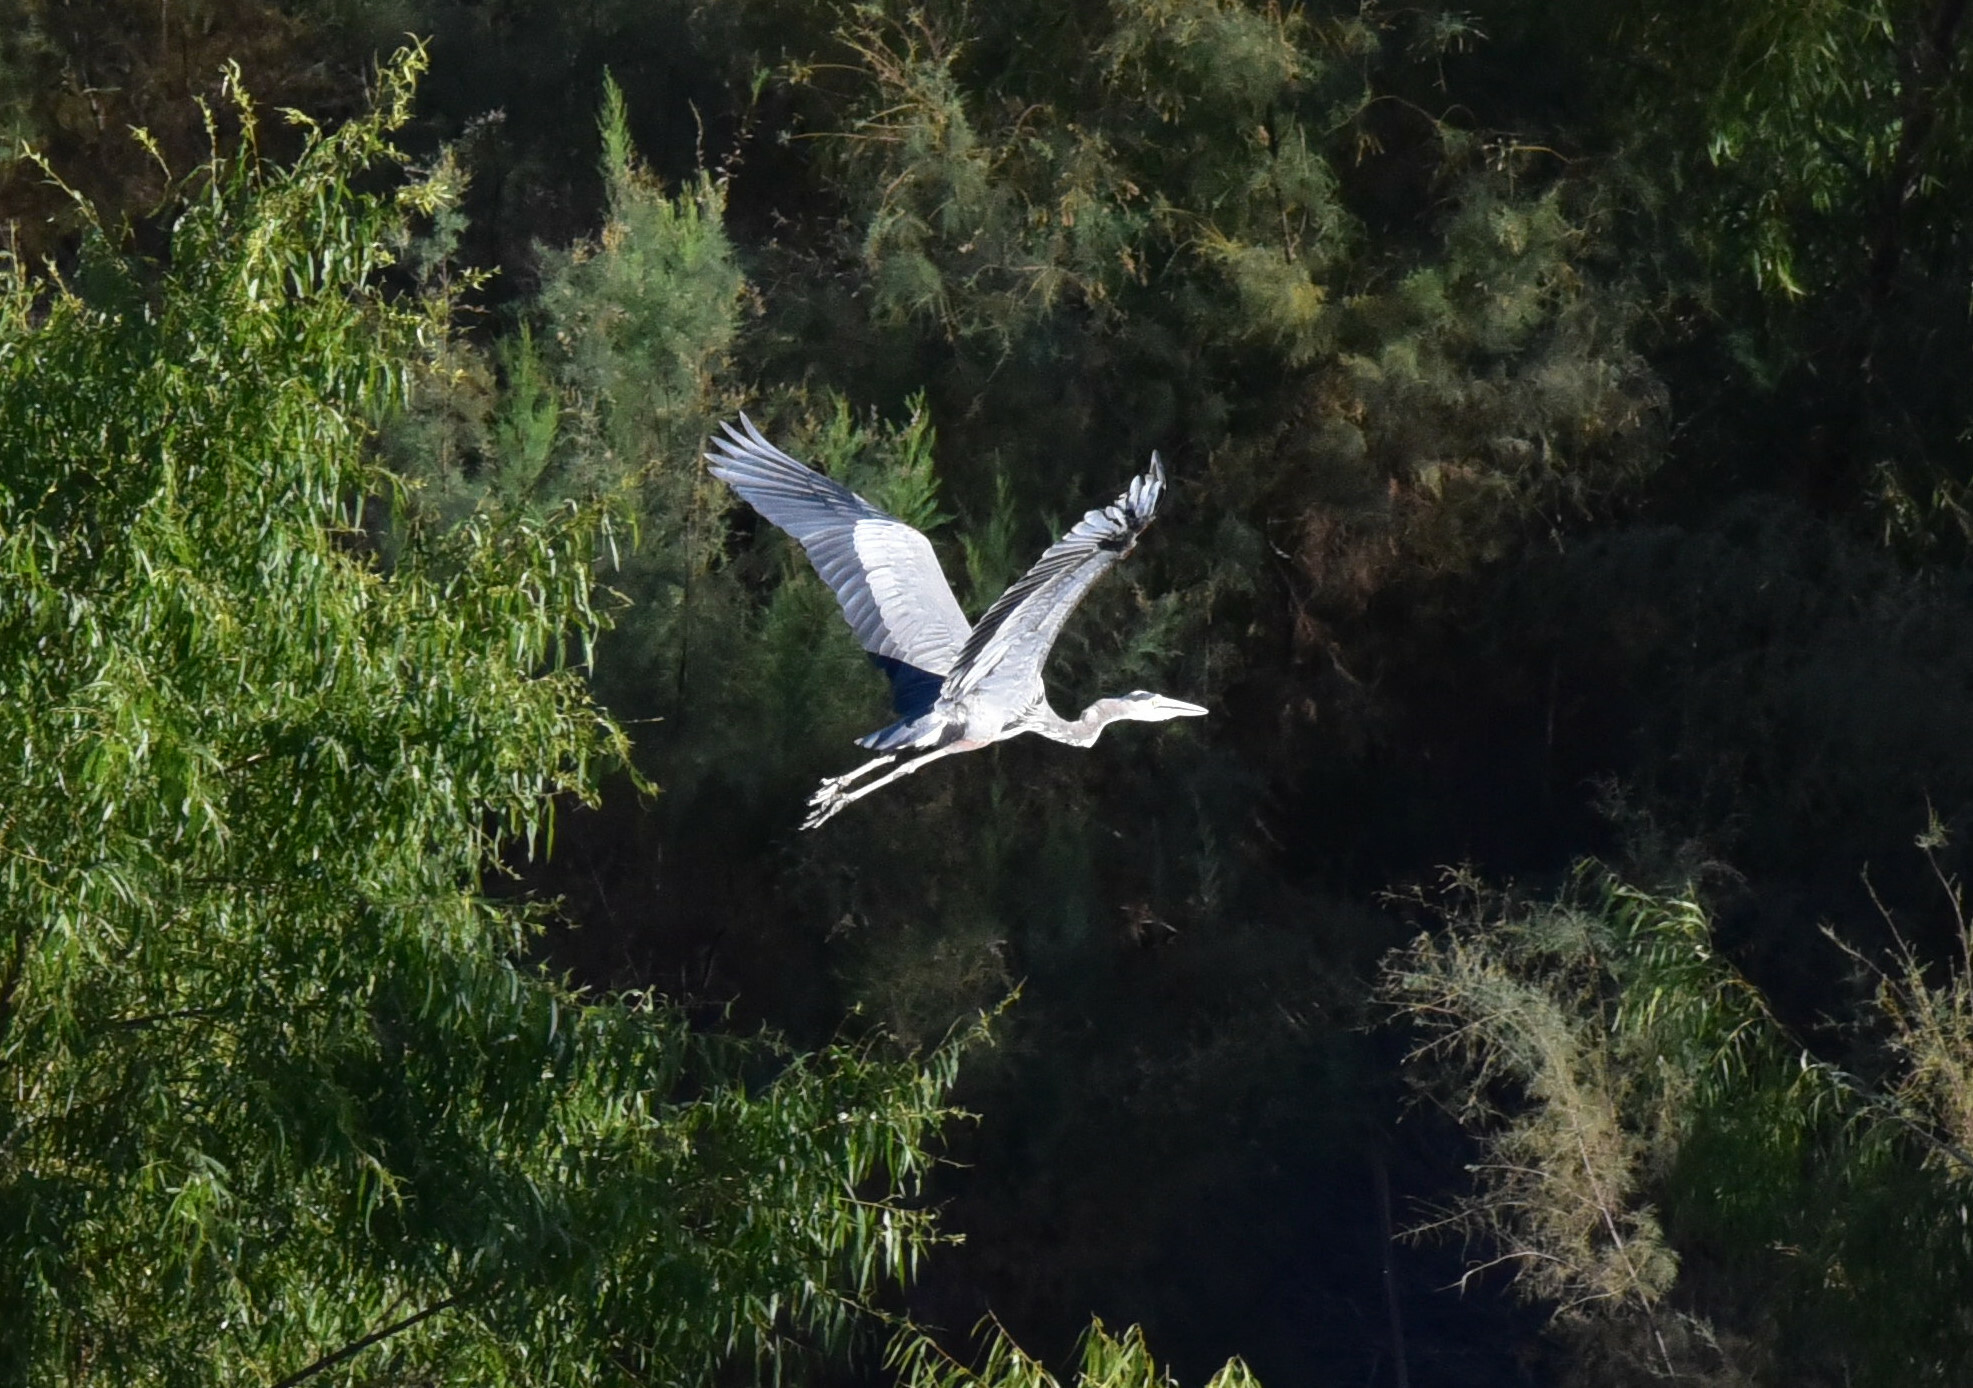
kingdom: Animalia
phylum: Chordata
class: Aves
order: Pelecaniformes
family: Ardeidae
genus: Ardea
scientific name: Ardea herodias
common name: Great blue heron
